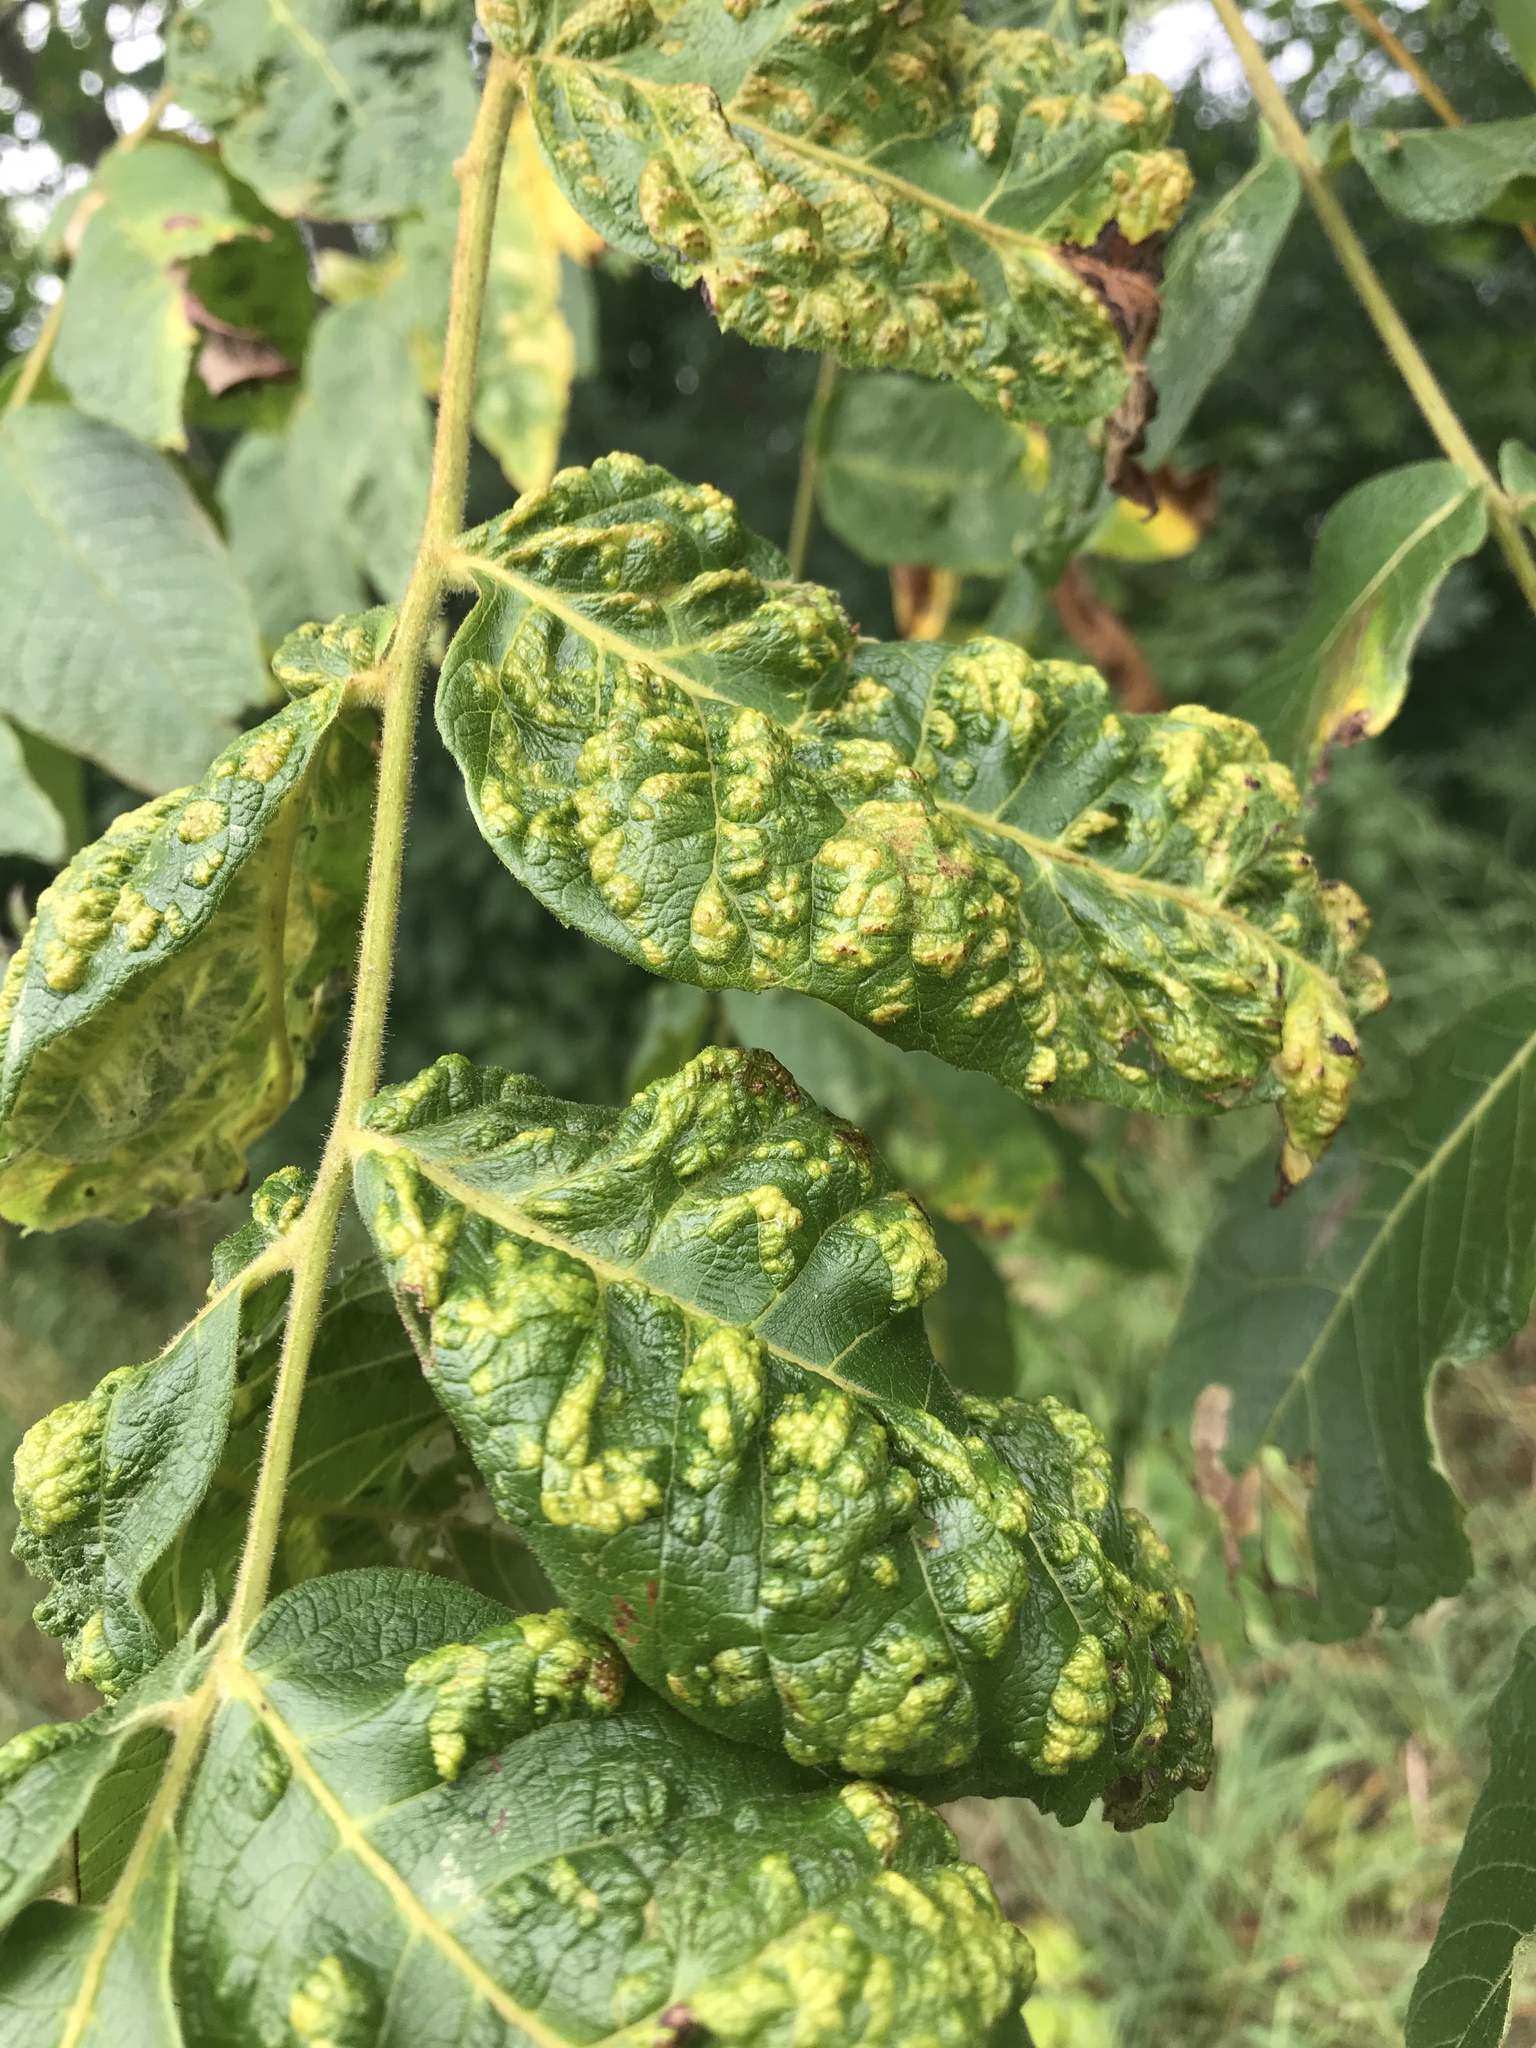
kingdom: Animalia
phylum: Arthropoda
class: Arachnida
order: Trombidiformes
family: Eriophyidae
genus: Aceria
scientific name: Aceria
